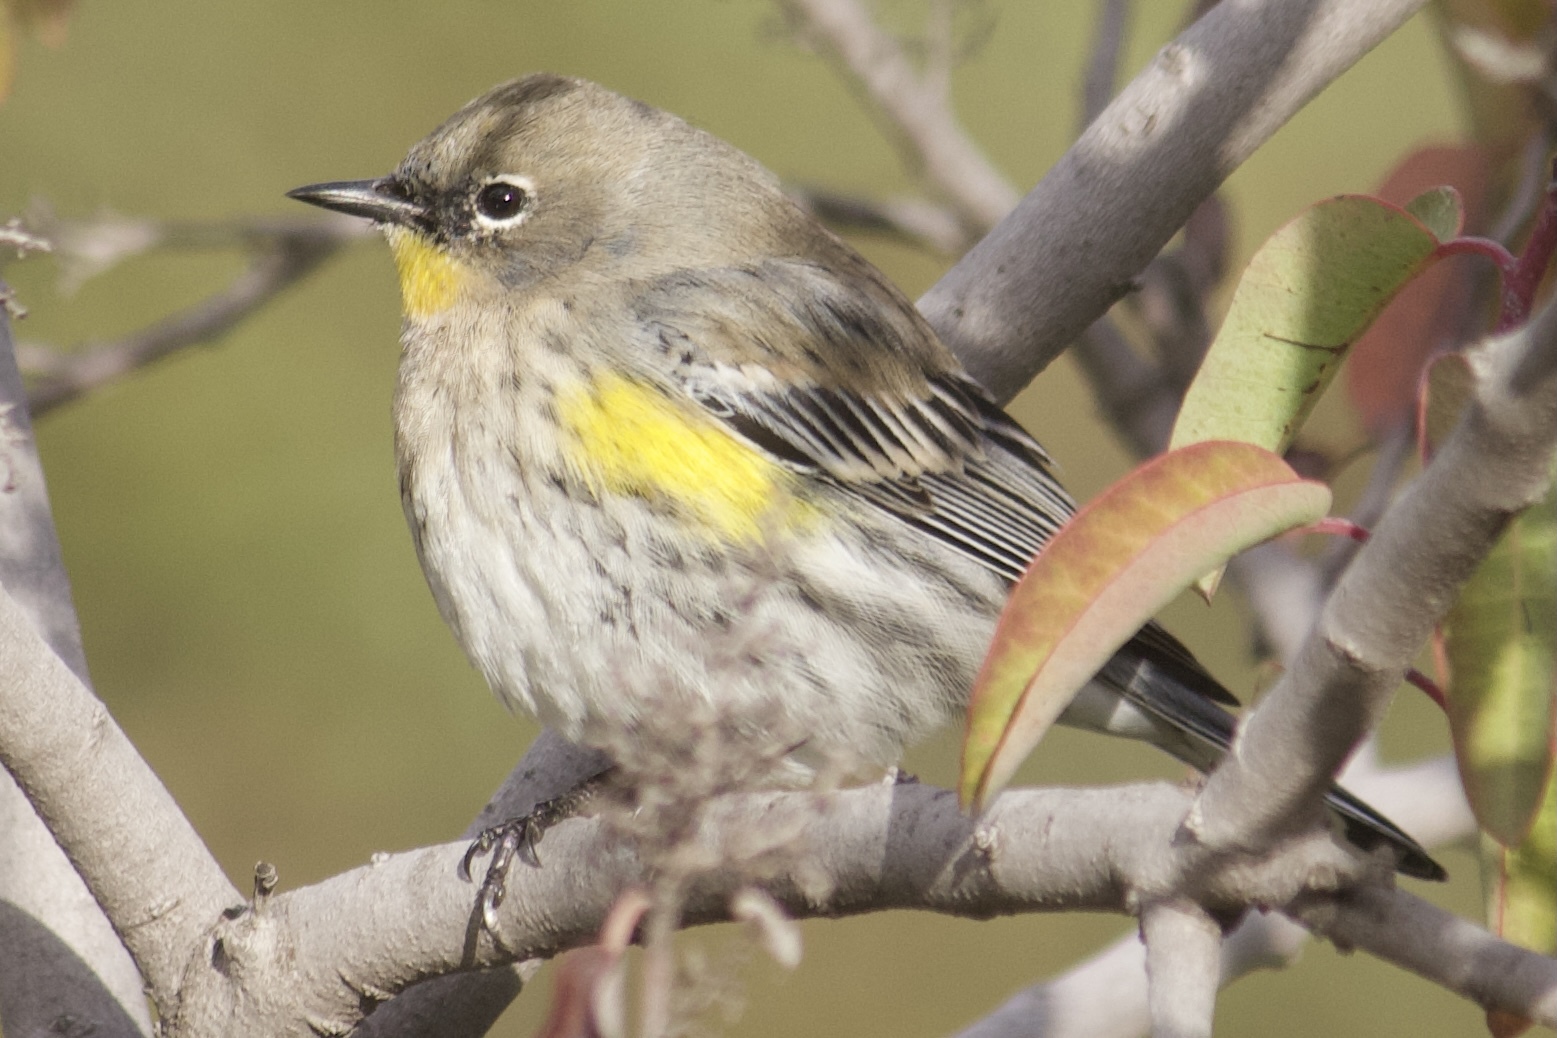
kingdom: Animalia
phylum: Chordata
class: Aves
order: Passeriformes
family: Parulidae
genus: Setophaga
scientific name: Setophaga coronata
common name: Myrtle warbler
